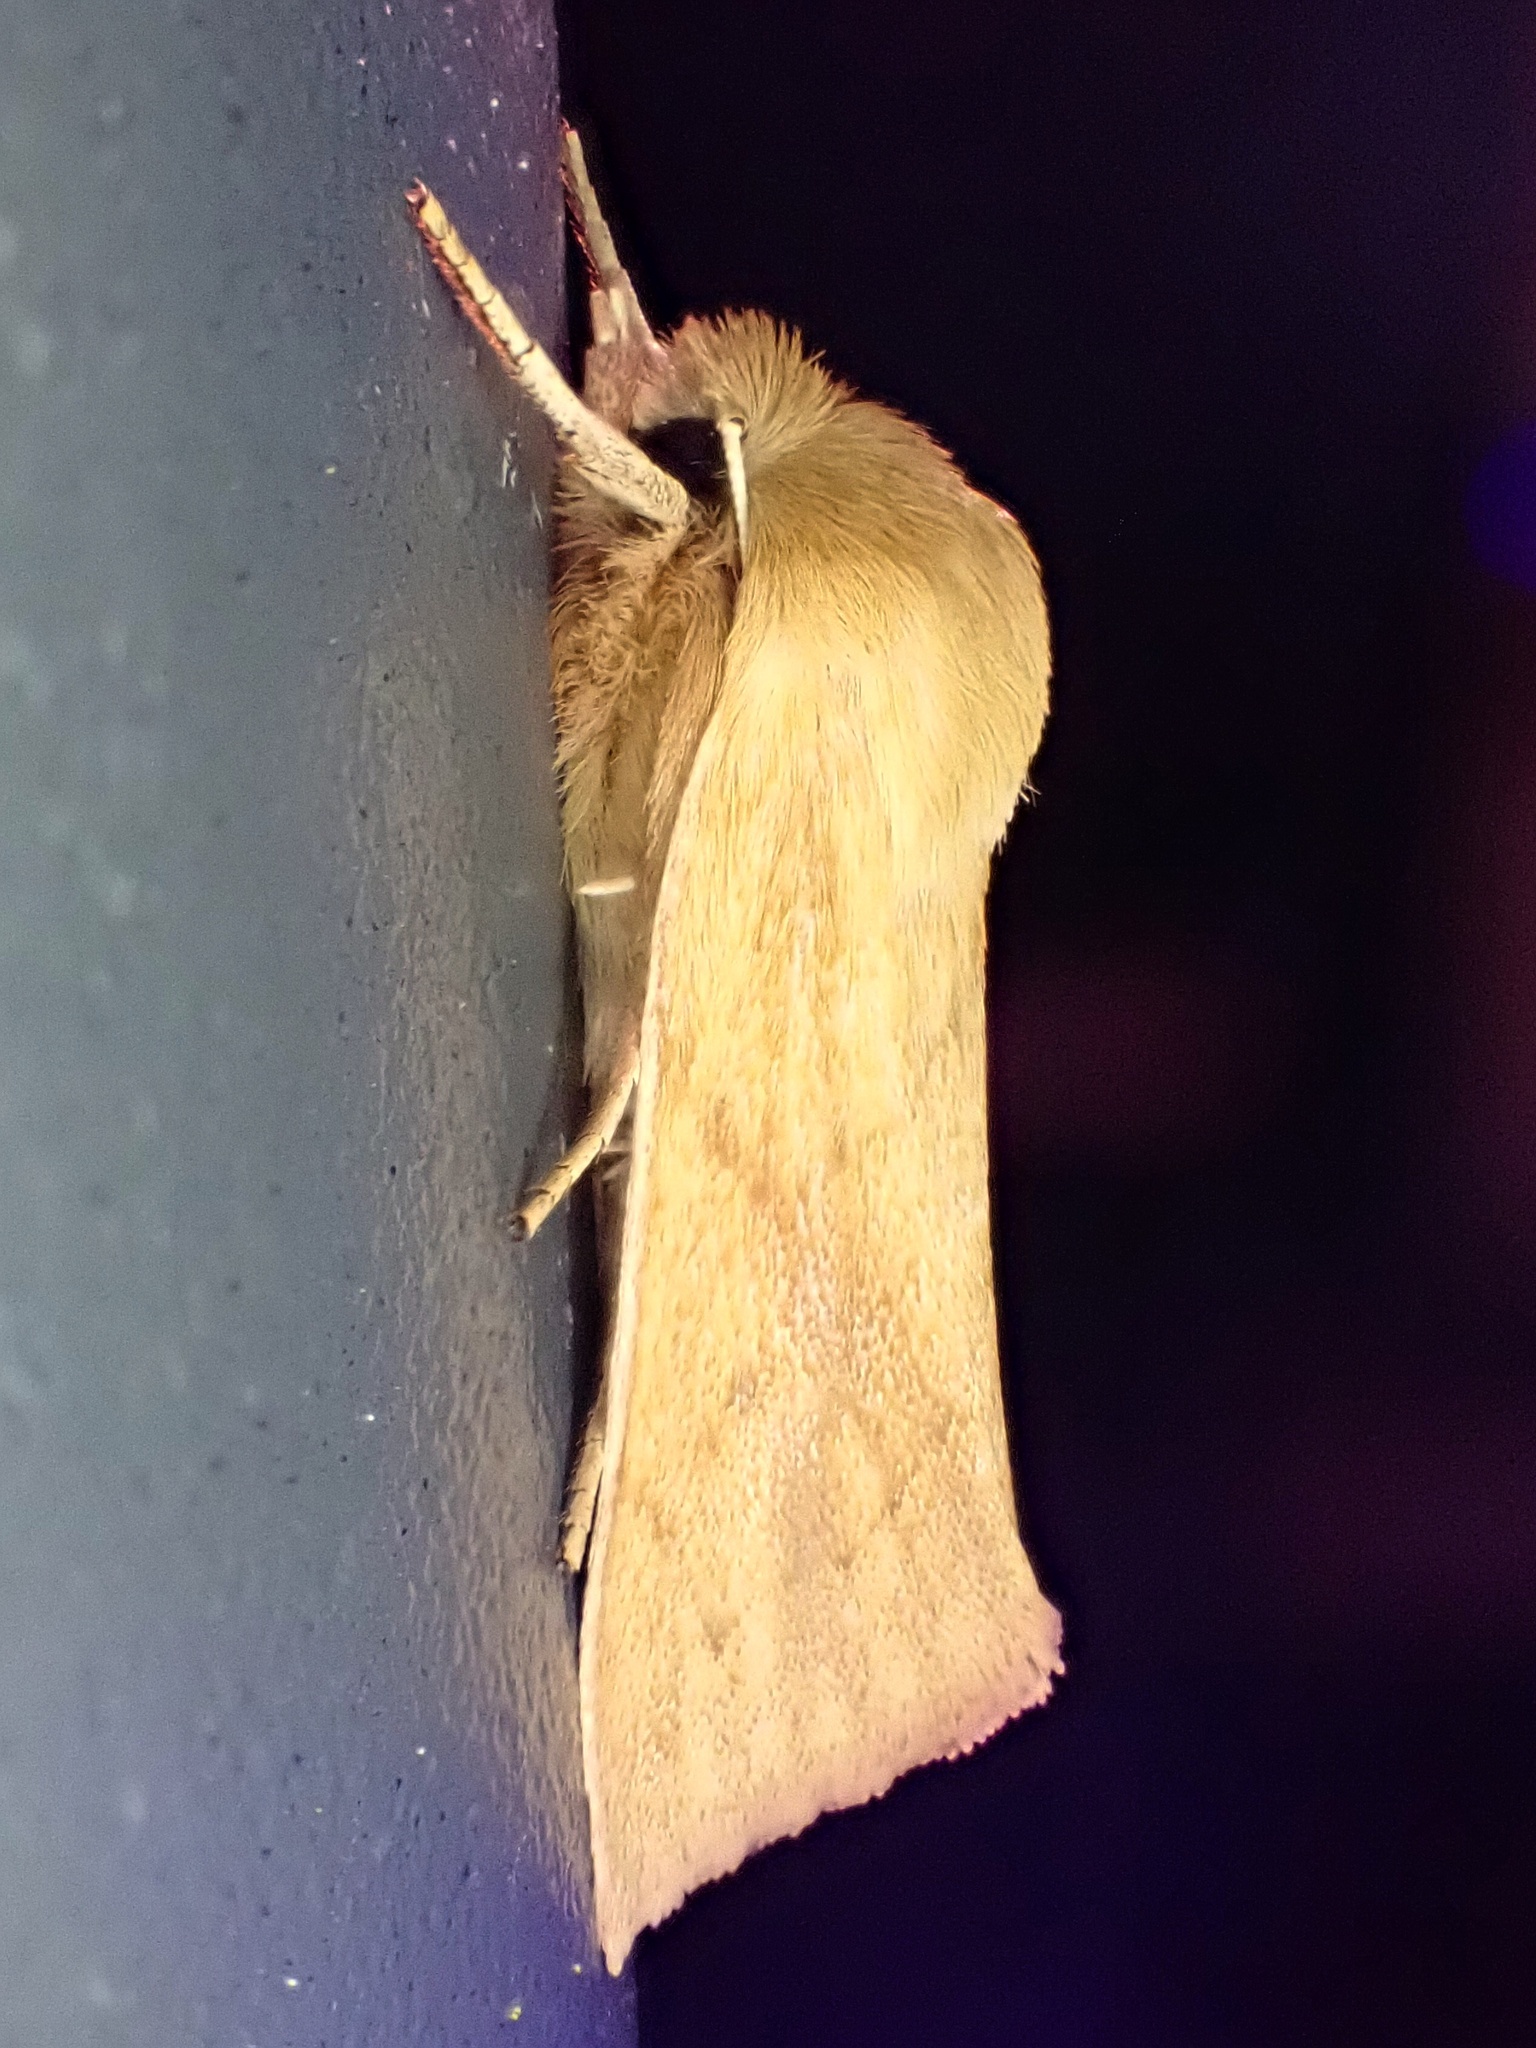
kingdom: Animalia
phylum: Arthropoda
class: Insecta
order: Lepidoptera
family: Noctuidae
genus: Zosteropoda
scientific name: Zosteropoda hirtipes
